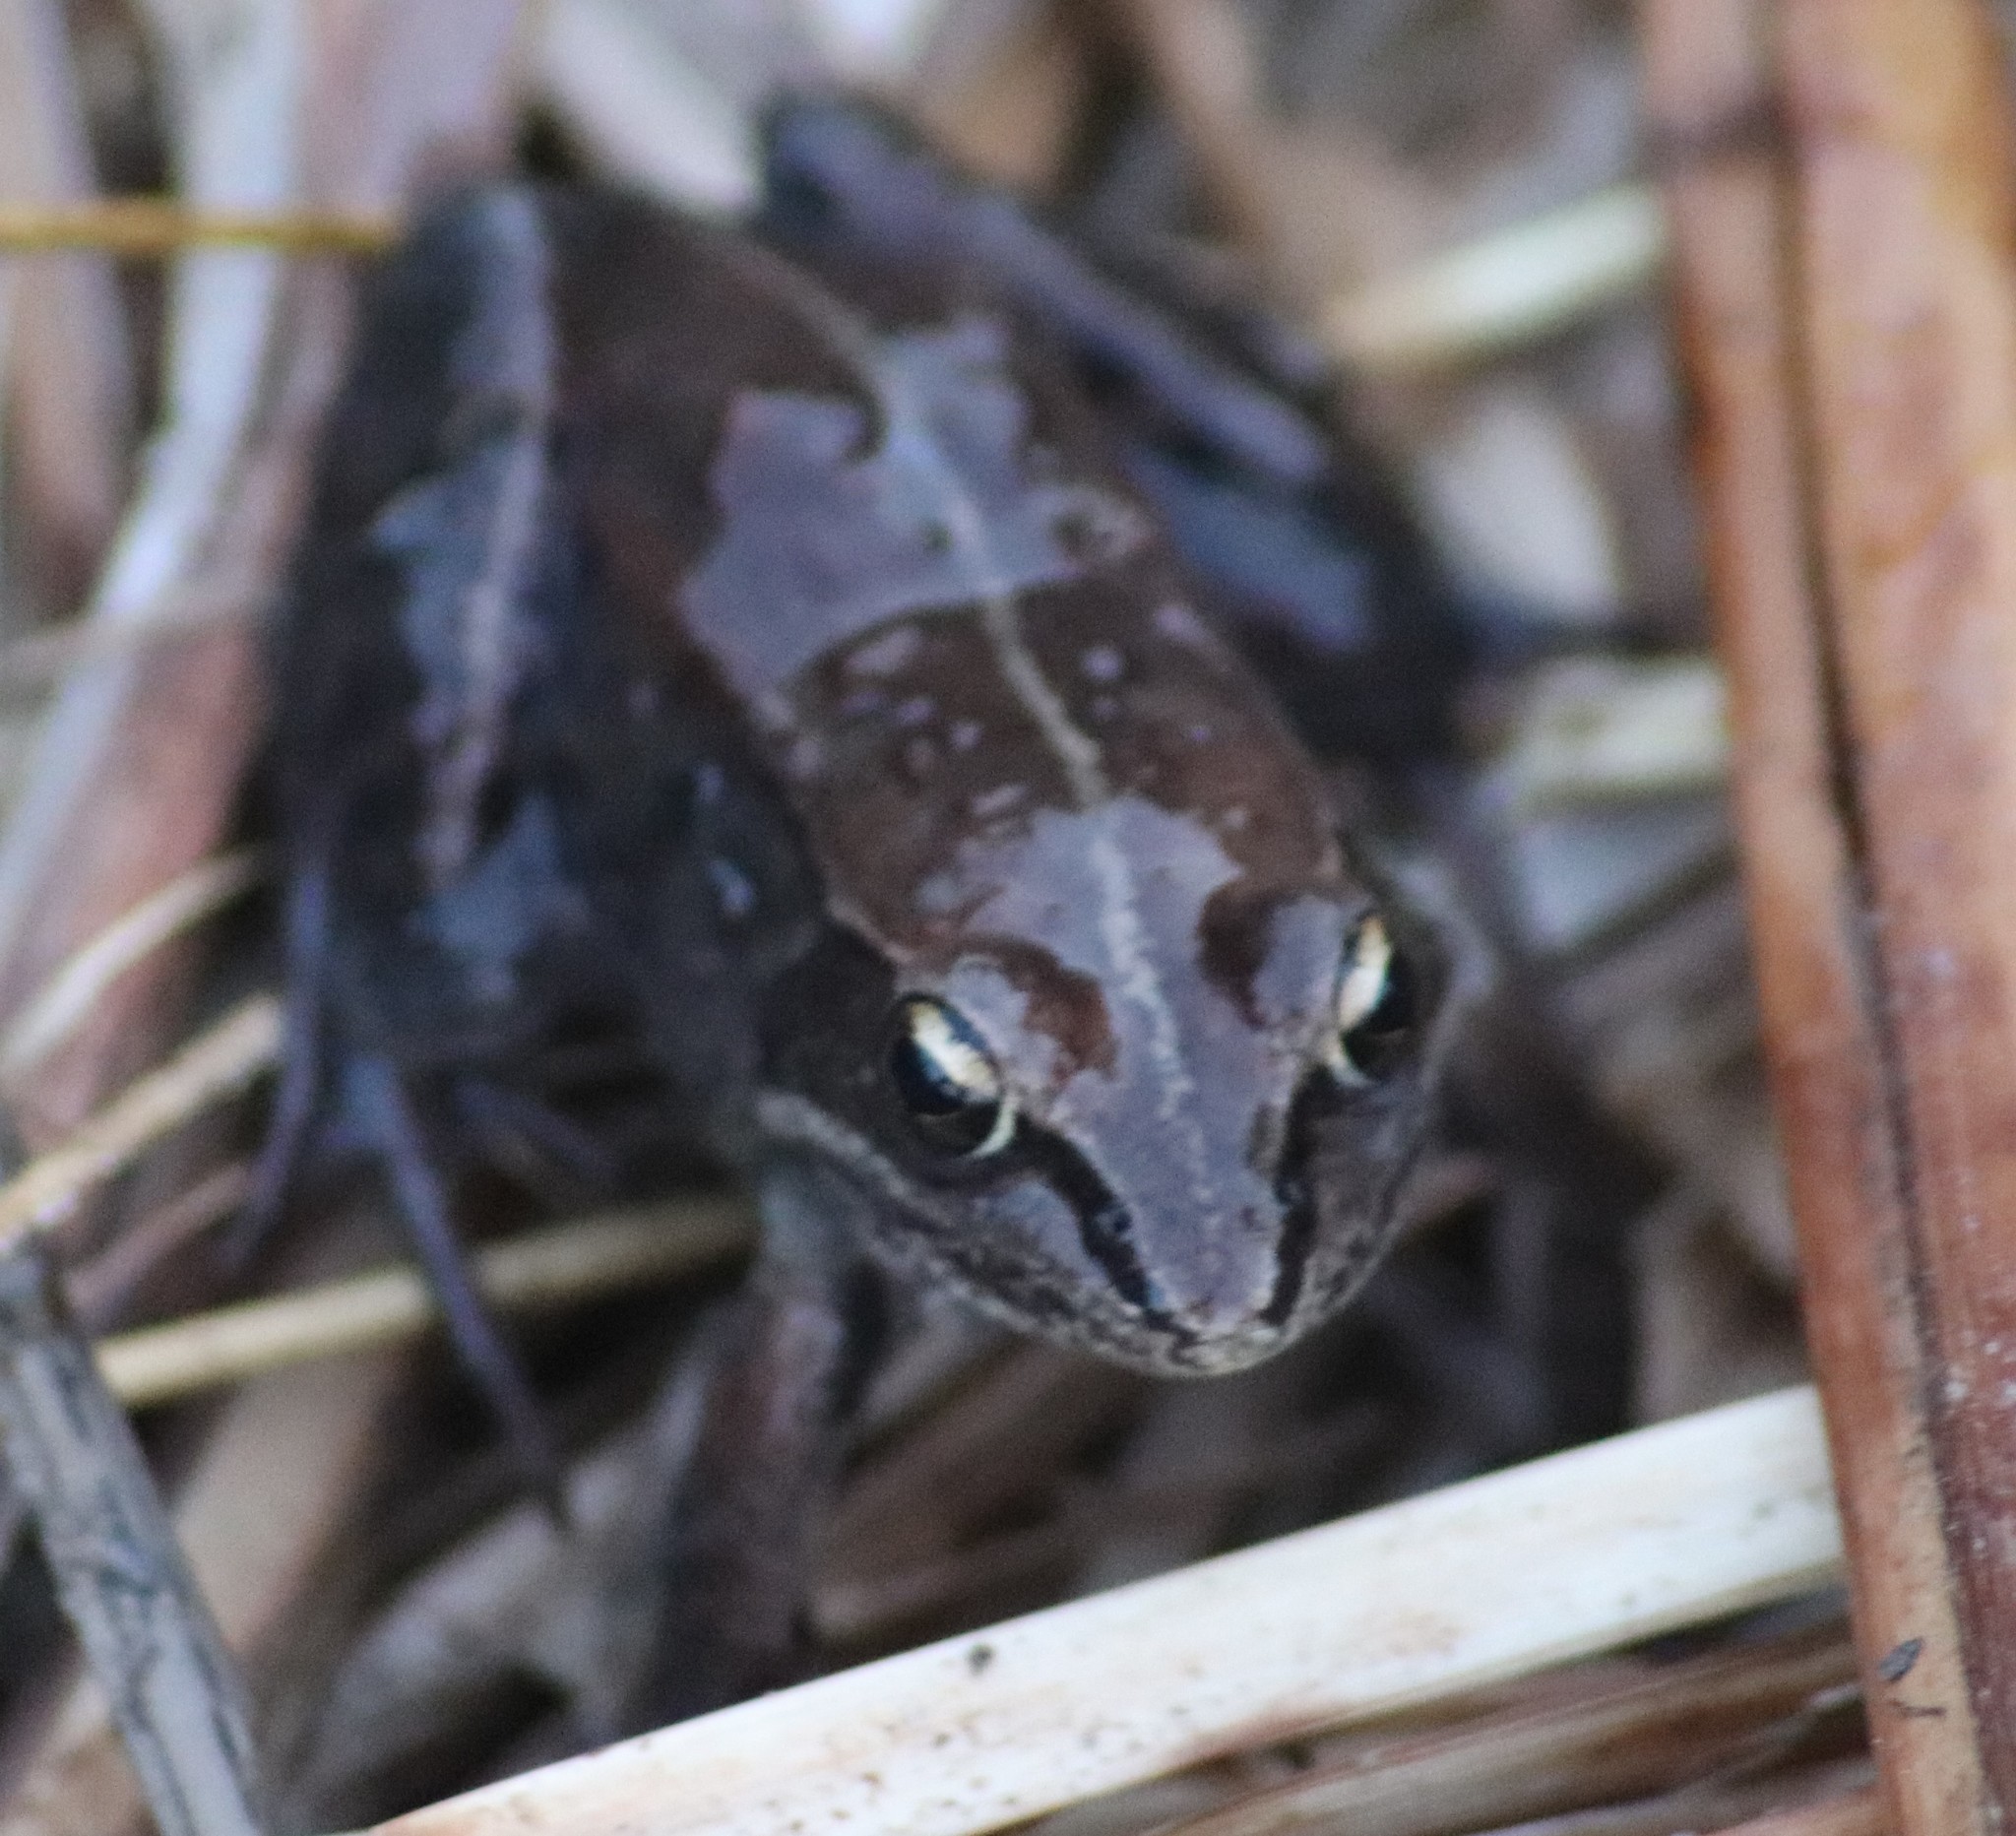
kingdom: Animalia
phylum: Chordata
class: Amphibia
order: Anura
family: Ranidae
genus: Lithobates
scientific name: Lithobates sylvaticus
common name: Wood frog
